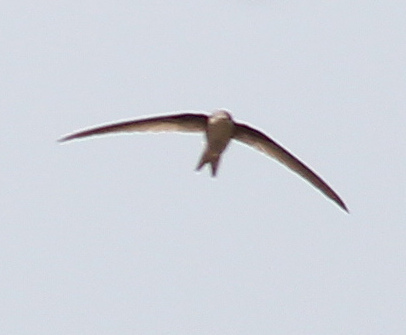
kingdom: Animalia
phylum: Chordata
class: Aves
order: Apodiformes
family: Apodidae
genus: Cypsiurus
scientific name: Cypsiurus balasiensis
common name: Asian palm swift
